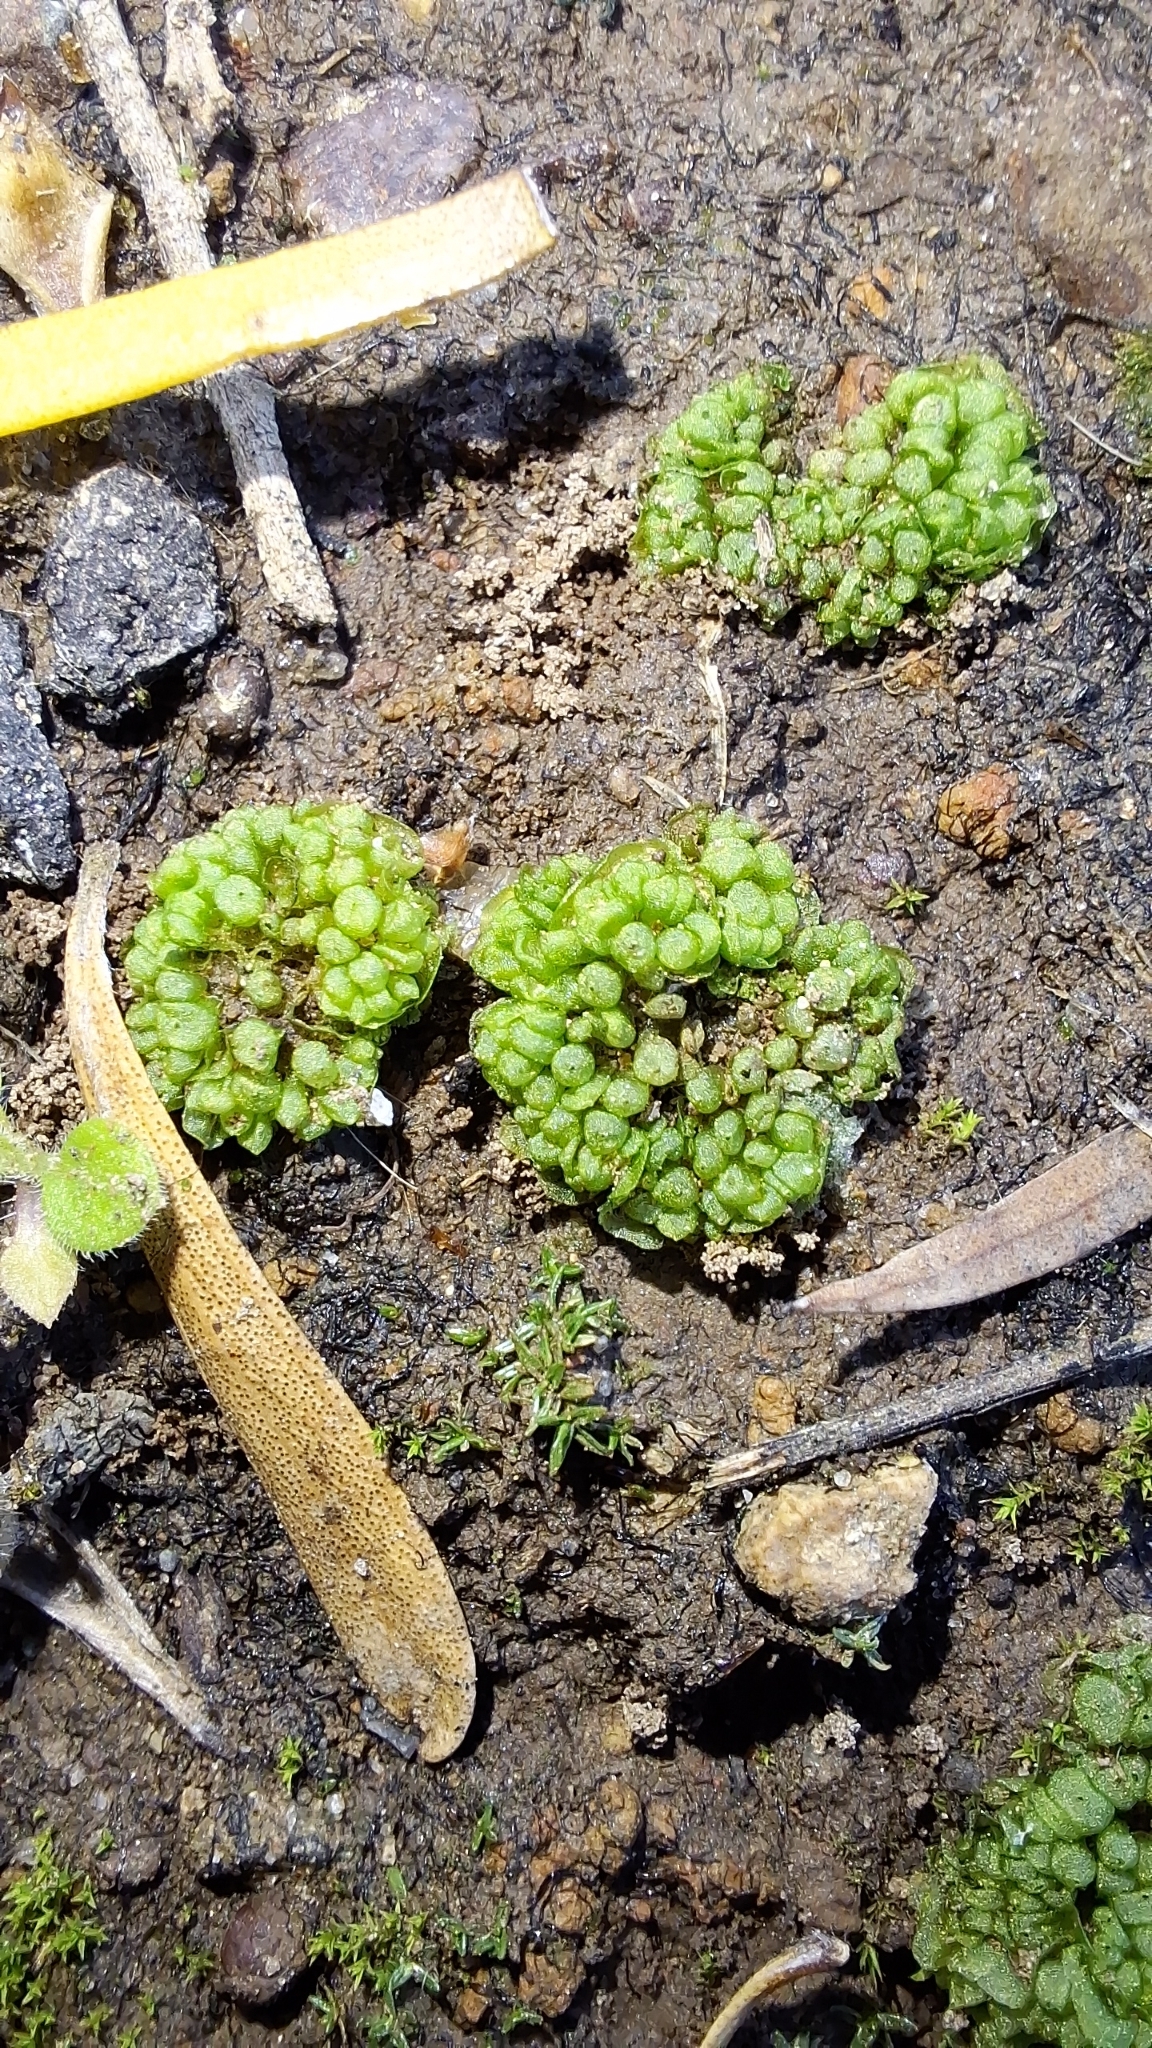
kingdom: Plantae
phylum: Marchantiophyta
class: Marchantiopsida
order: Sphaerocarpales
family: Sphaerocarpaceae
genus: Sphaerocarpos
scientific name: Sphaerocarpos texanus
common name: Texas balloonwort
